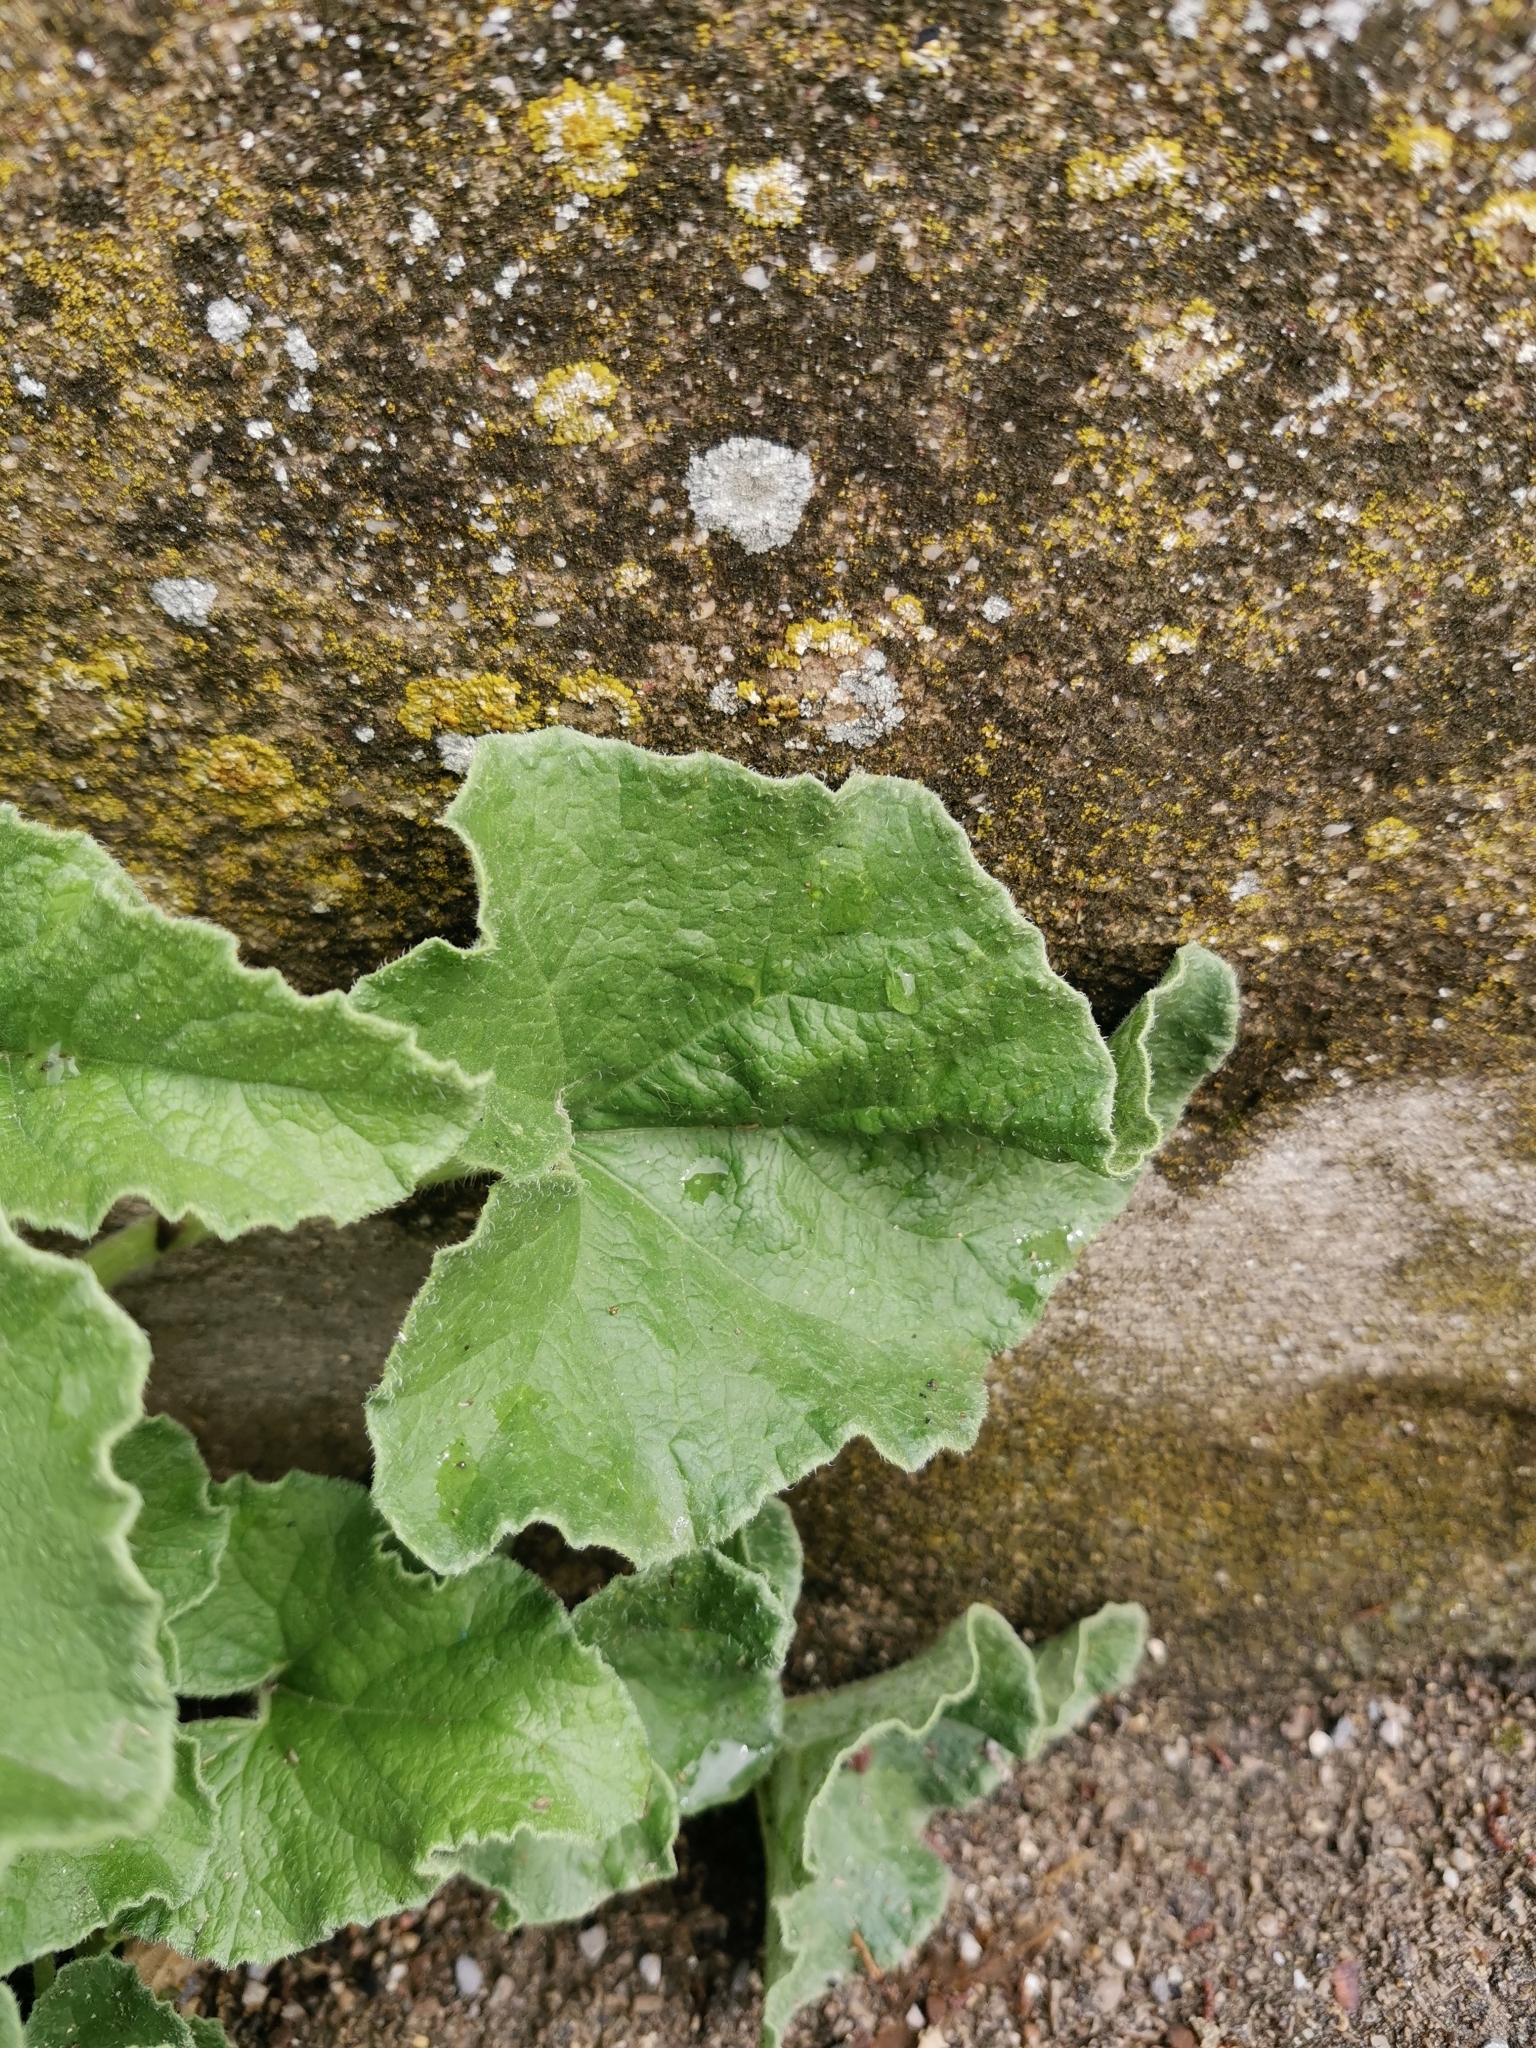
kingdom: Plantae
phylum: Tracheophyta
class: Magnoliopsida
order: Cucurbitales
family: Cucurbitaceae
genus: Ecballium
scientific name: Ecballium elaterium
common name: Squirting cucumber
